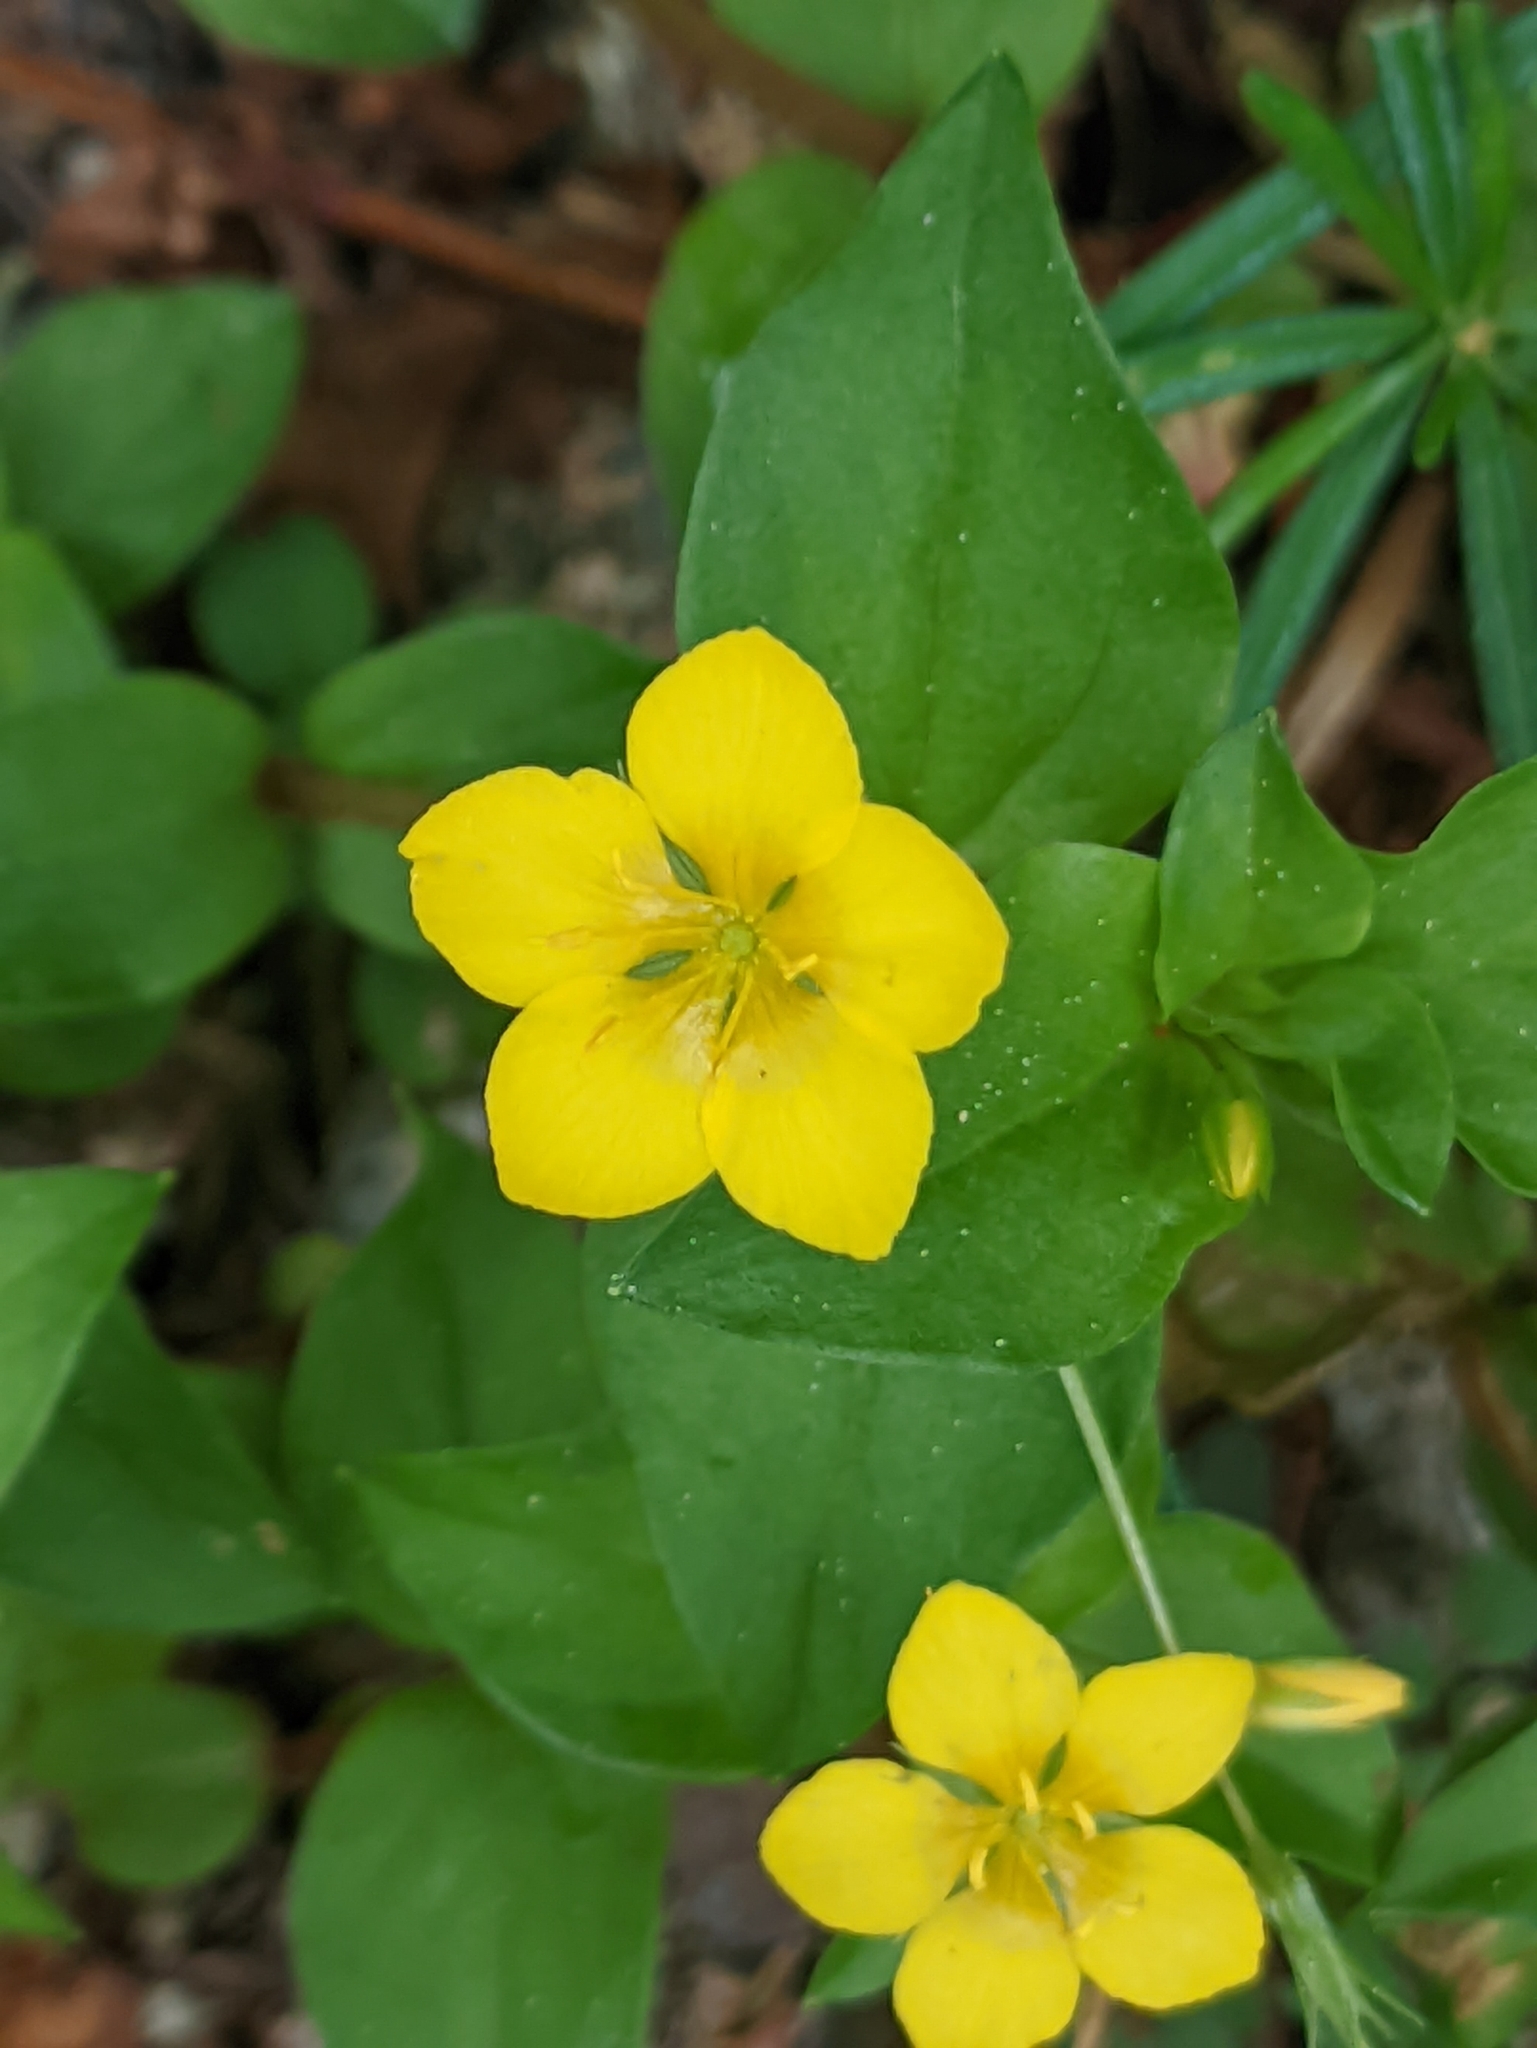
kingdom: Plantae
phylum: Tracheophyta
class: Magnoliopsida
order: Ericales
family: Primulaceae
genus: Lysimachia
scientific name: Lysimachia nemorum
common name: Yellow pimpernel
